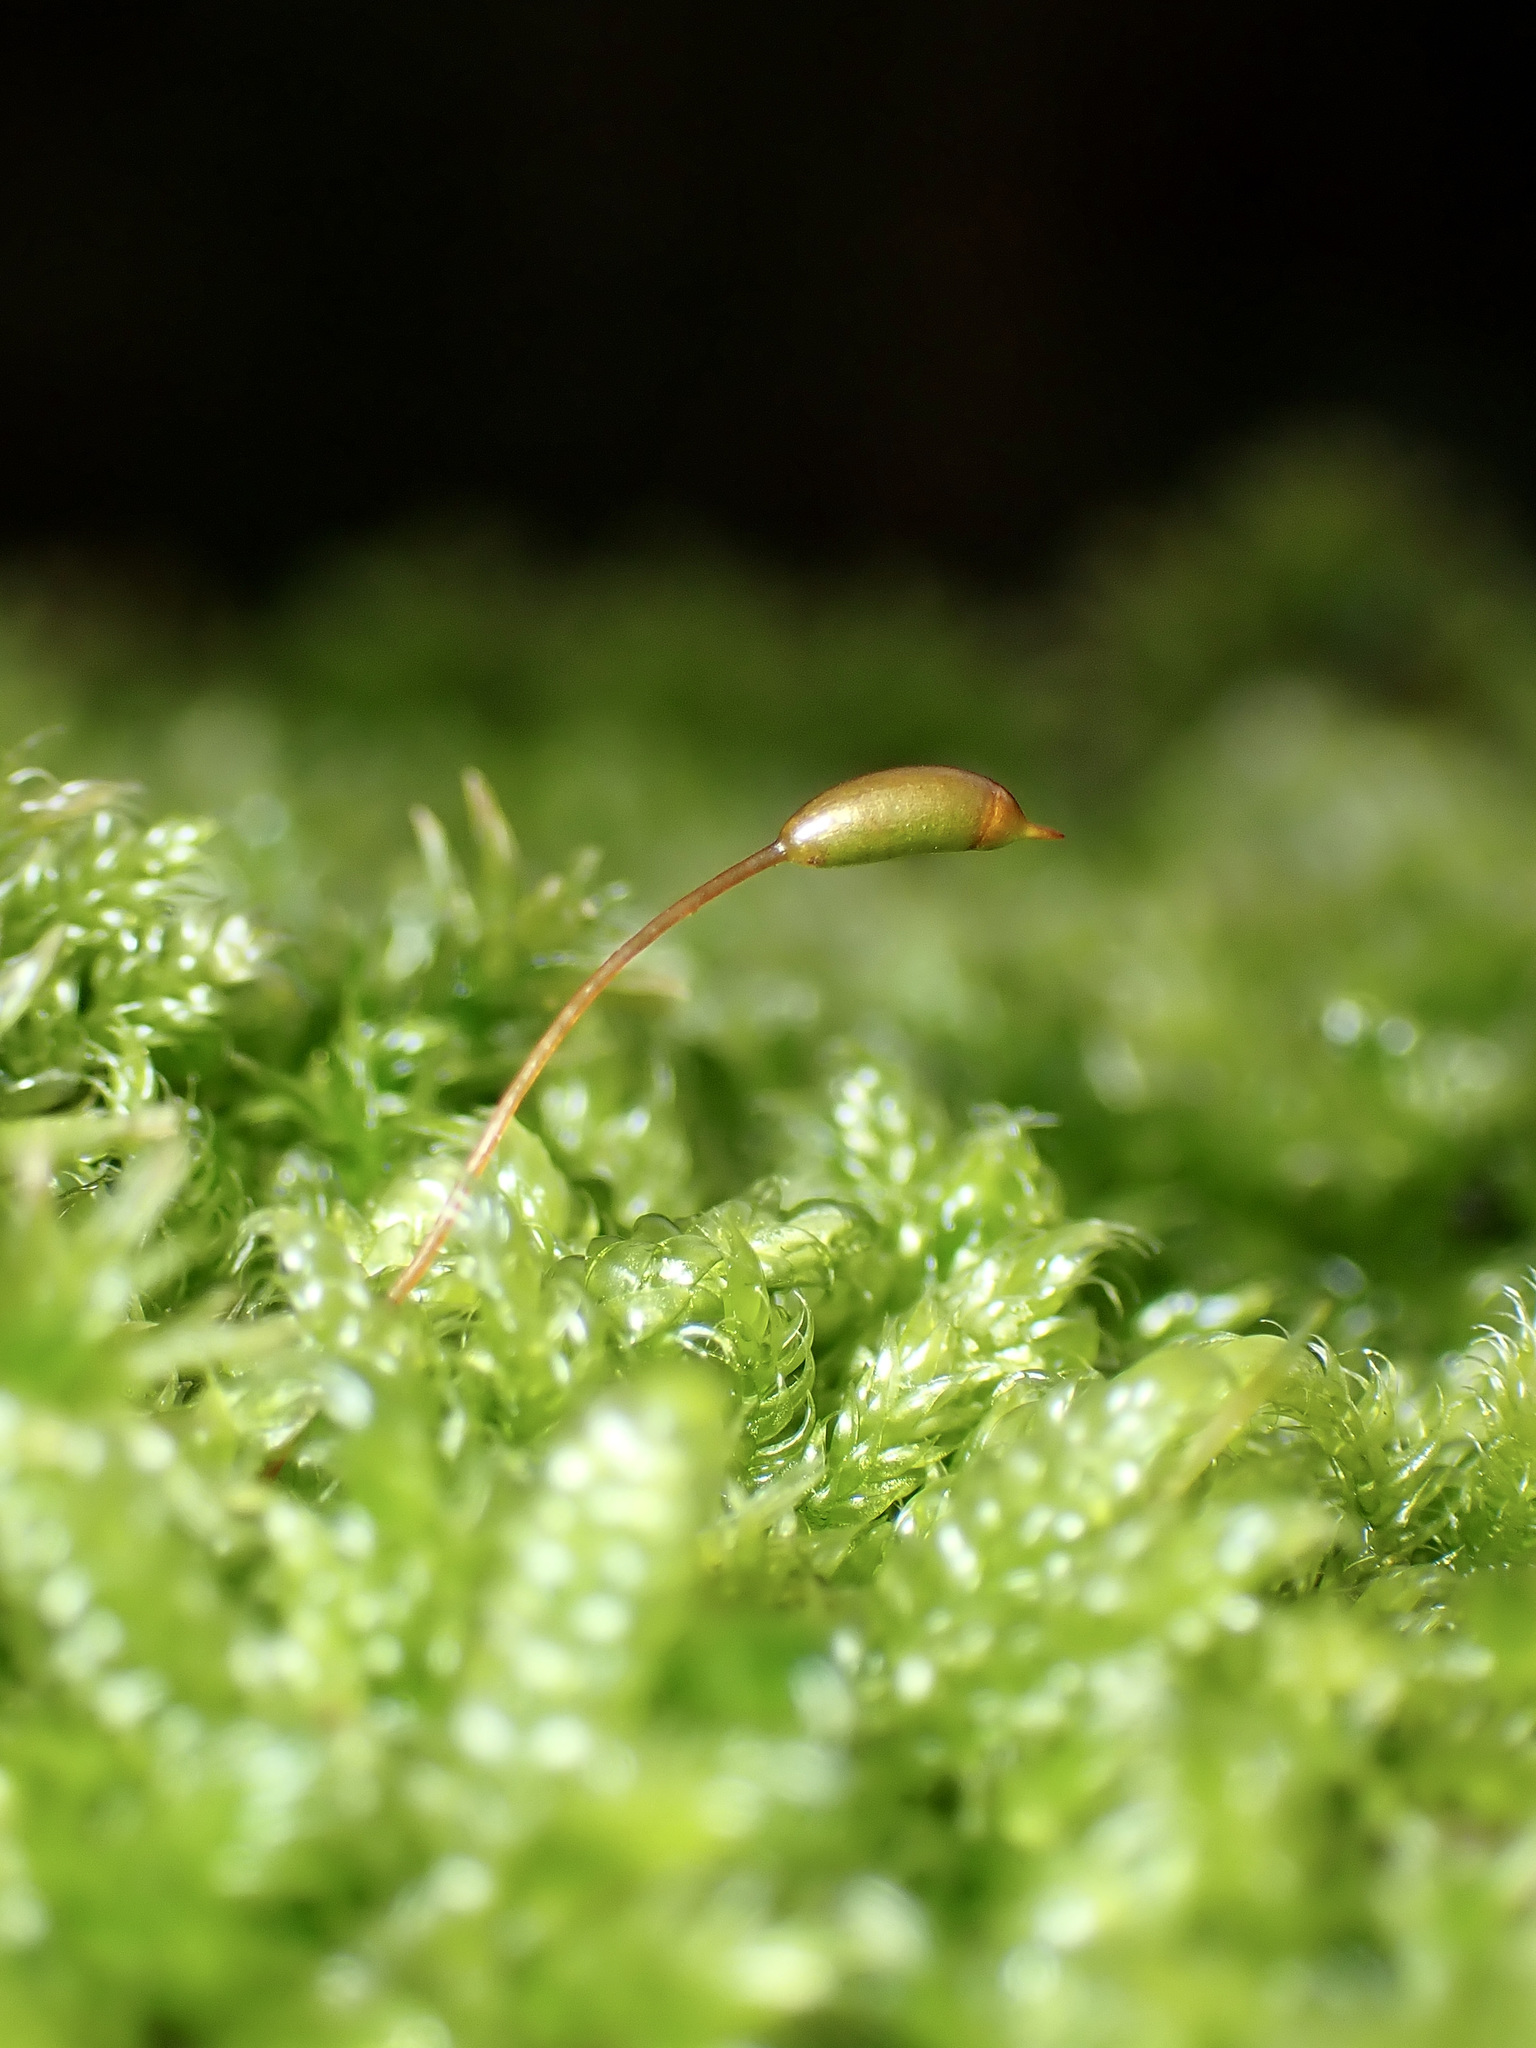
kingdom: Plantae
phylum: Bryophyta
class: Bryopsida
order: Hypnales
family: Hypnaceae
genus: Hypnum
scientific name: Hypnum cupressiforme
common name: Cypress-leaved plait-moss
